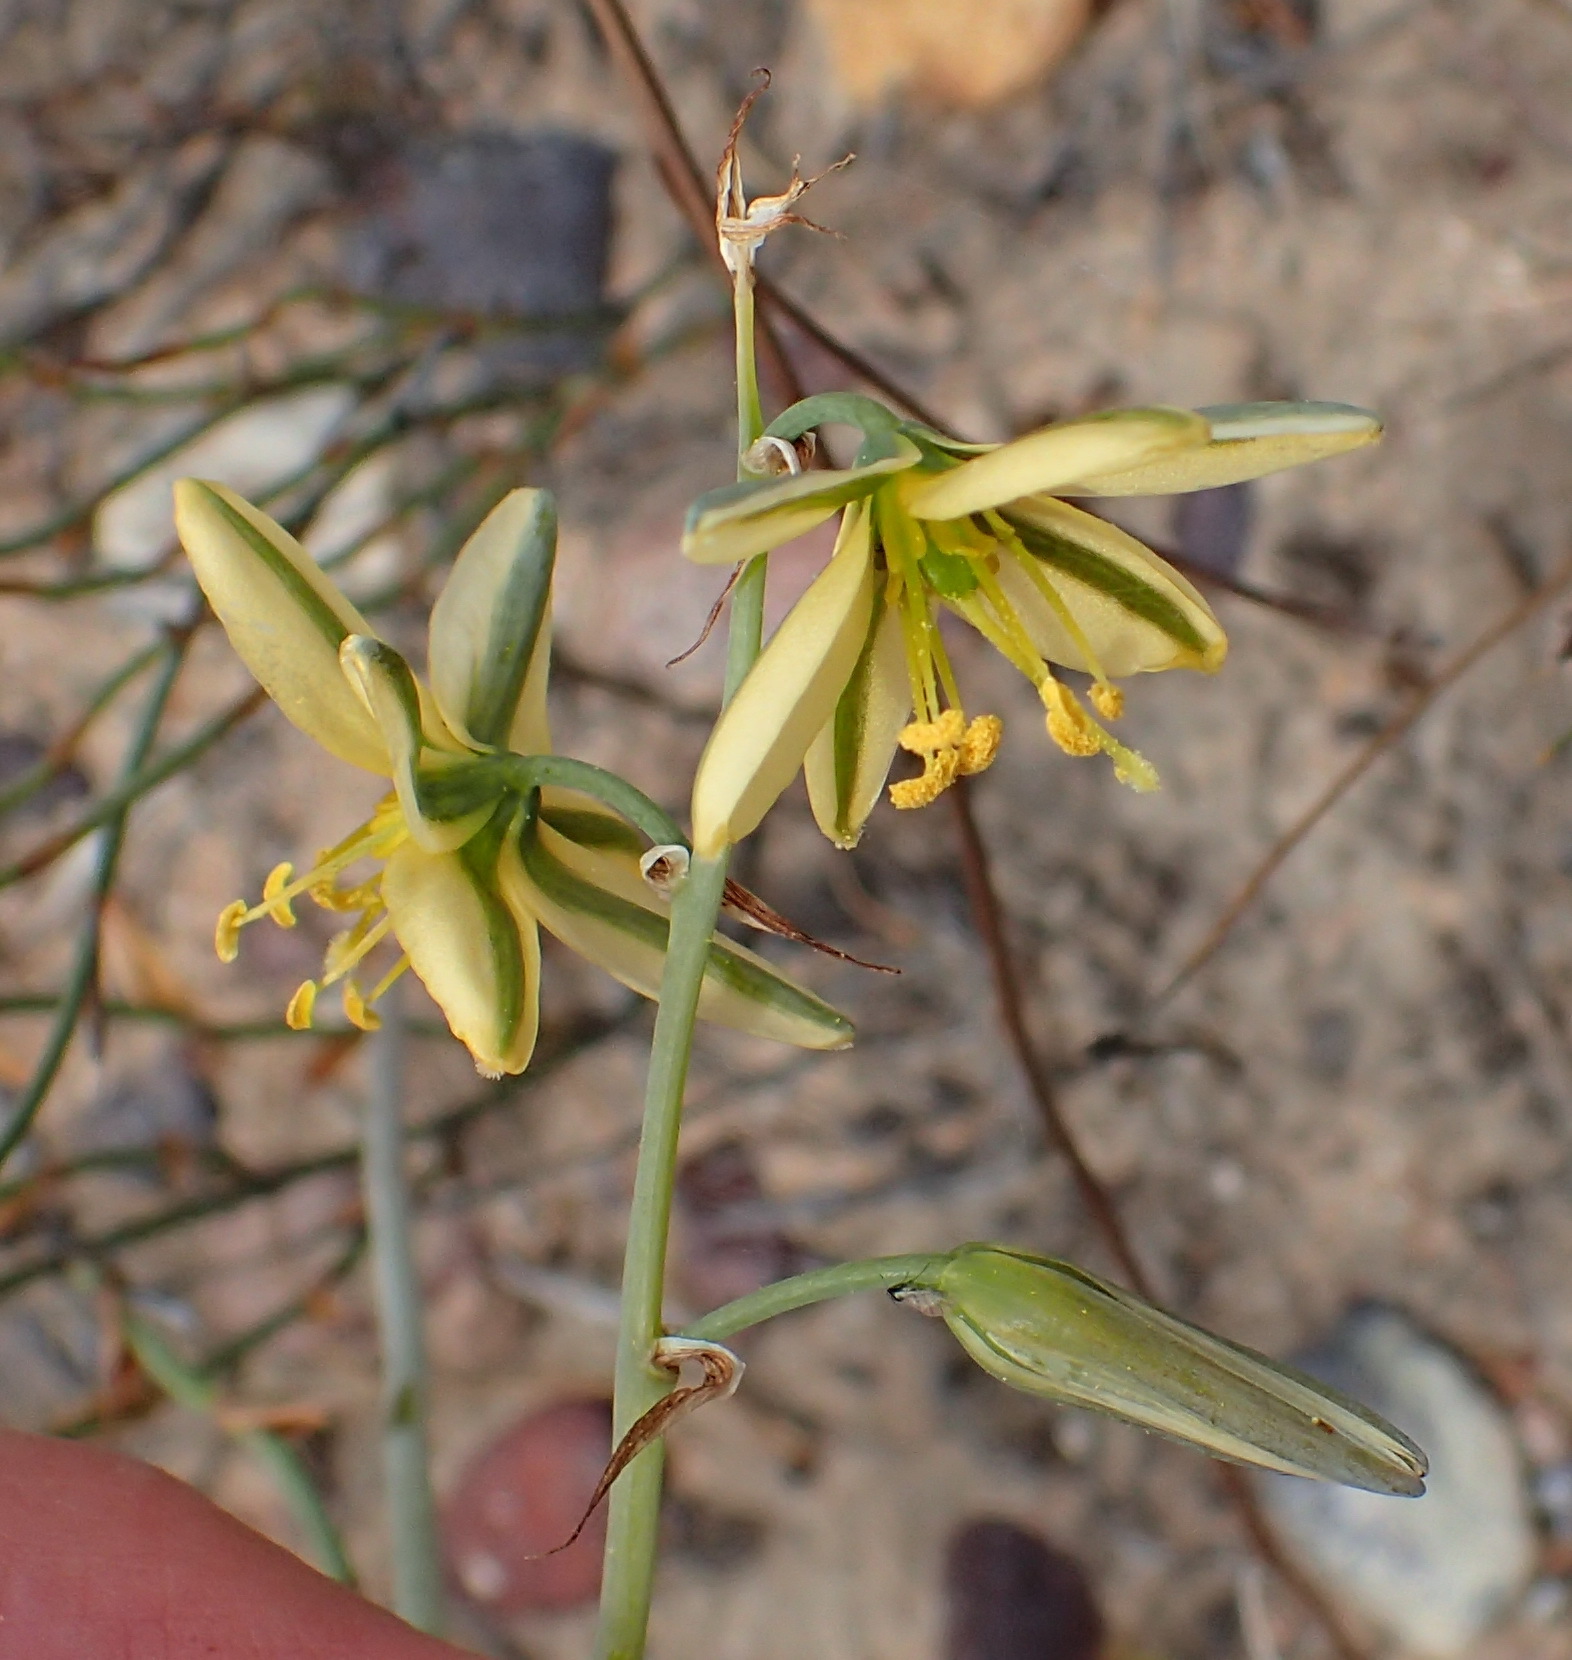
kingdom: Plantae
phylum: Tracheophyta
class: Liliopsida
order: Asparagales
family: Asparagaceae
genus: Albuca
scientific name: Albuca suaveolens
